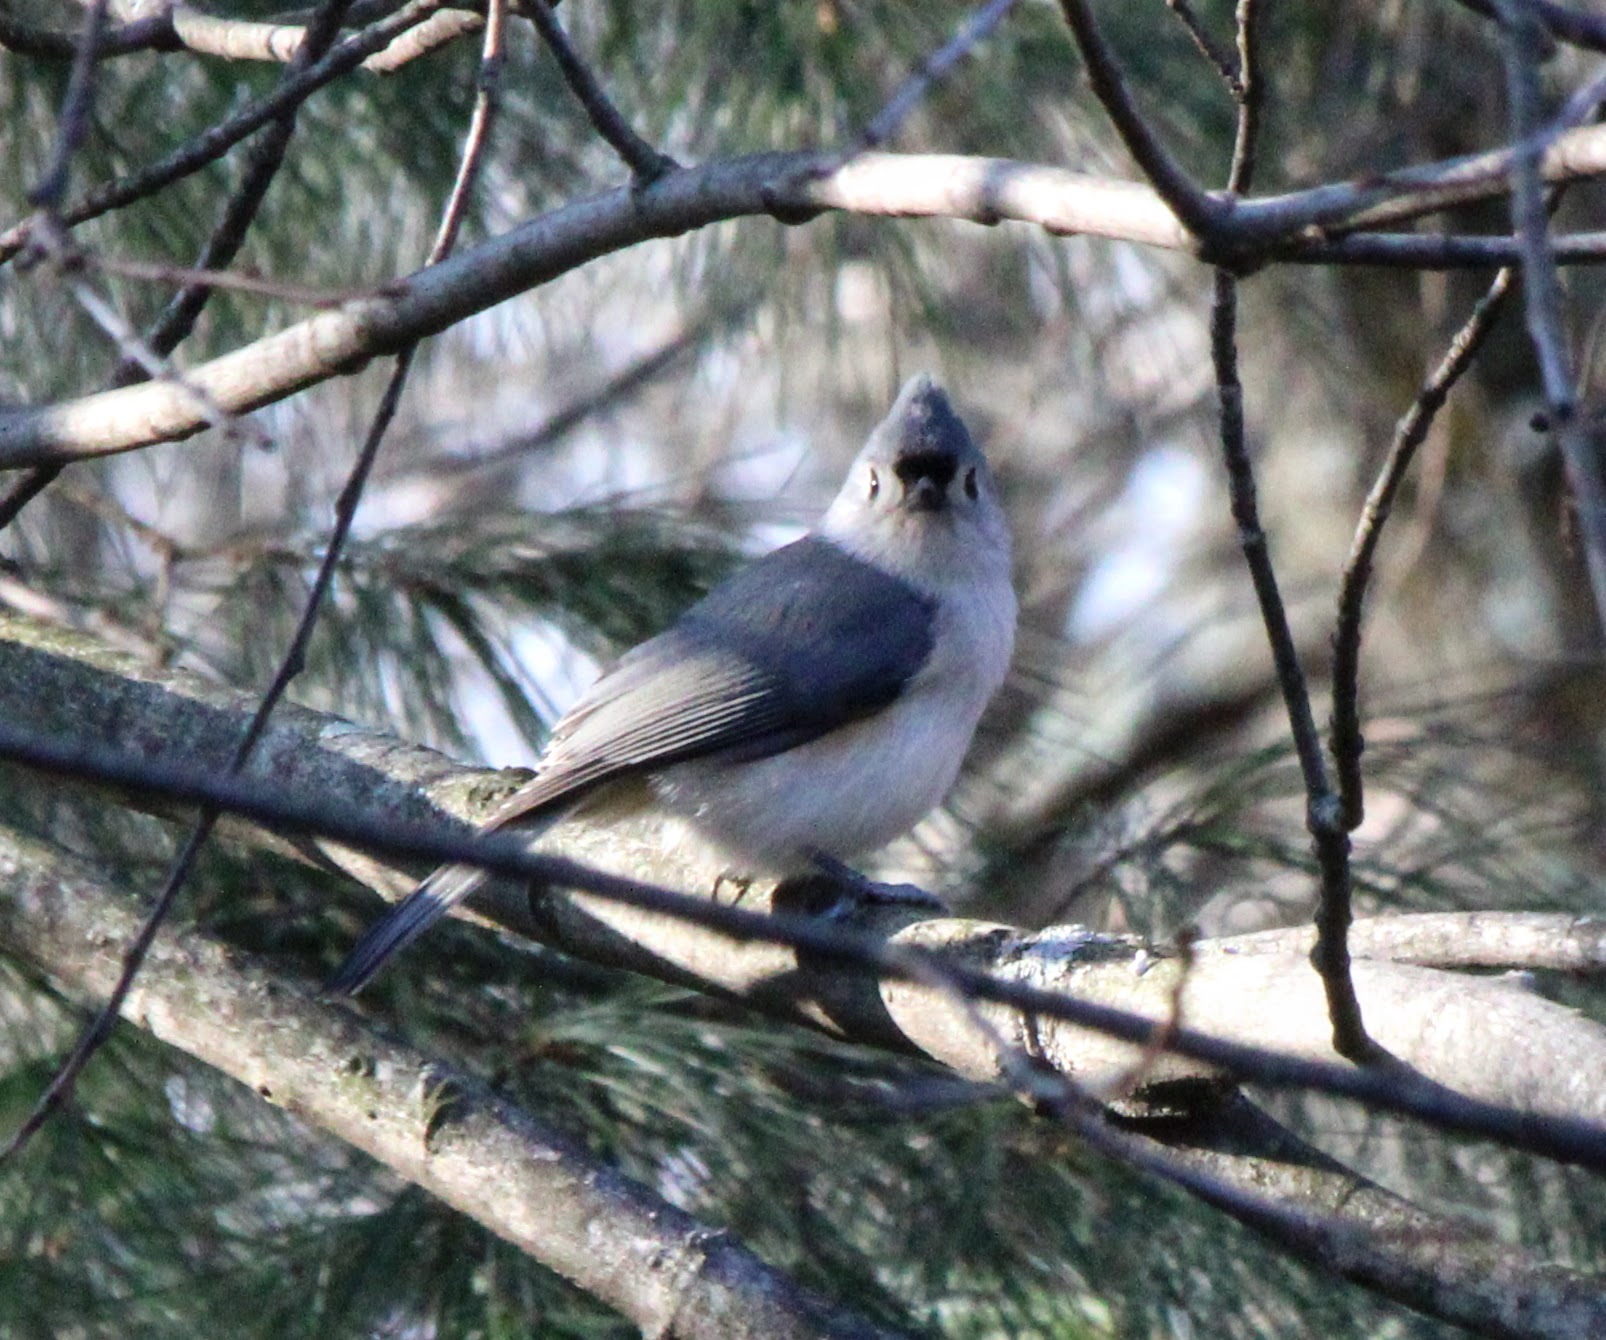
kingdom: Animalia
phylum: Chordata
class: Aves
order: Passeriformes
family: Paridae
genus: Baeolophus
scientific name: Baeolophus bicolor
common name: Tufted titmouse
